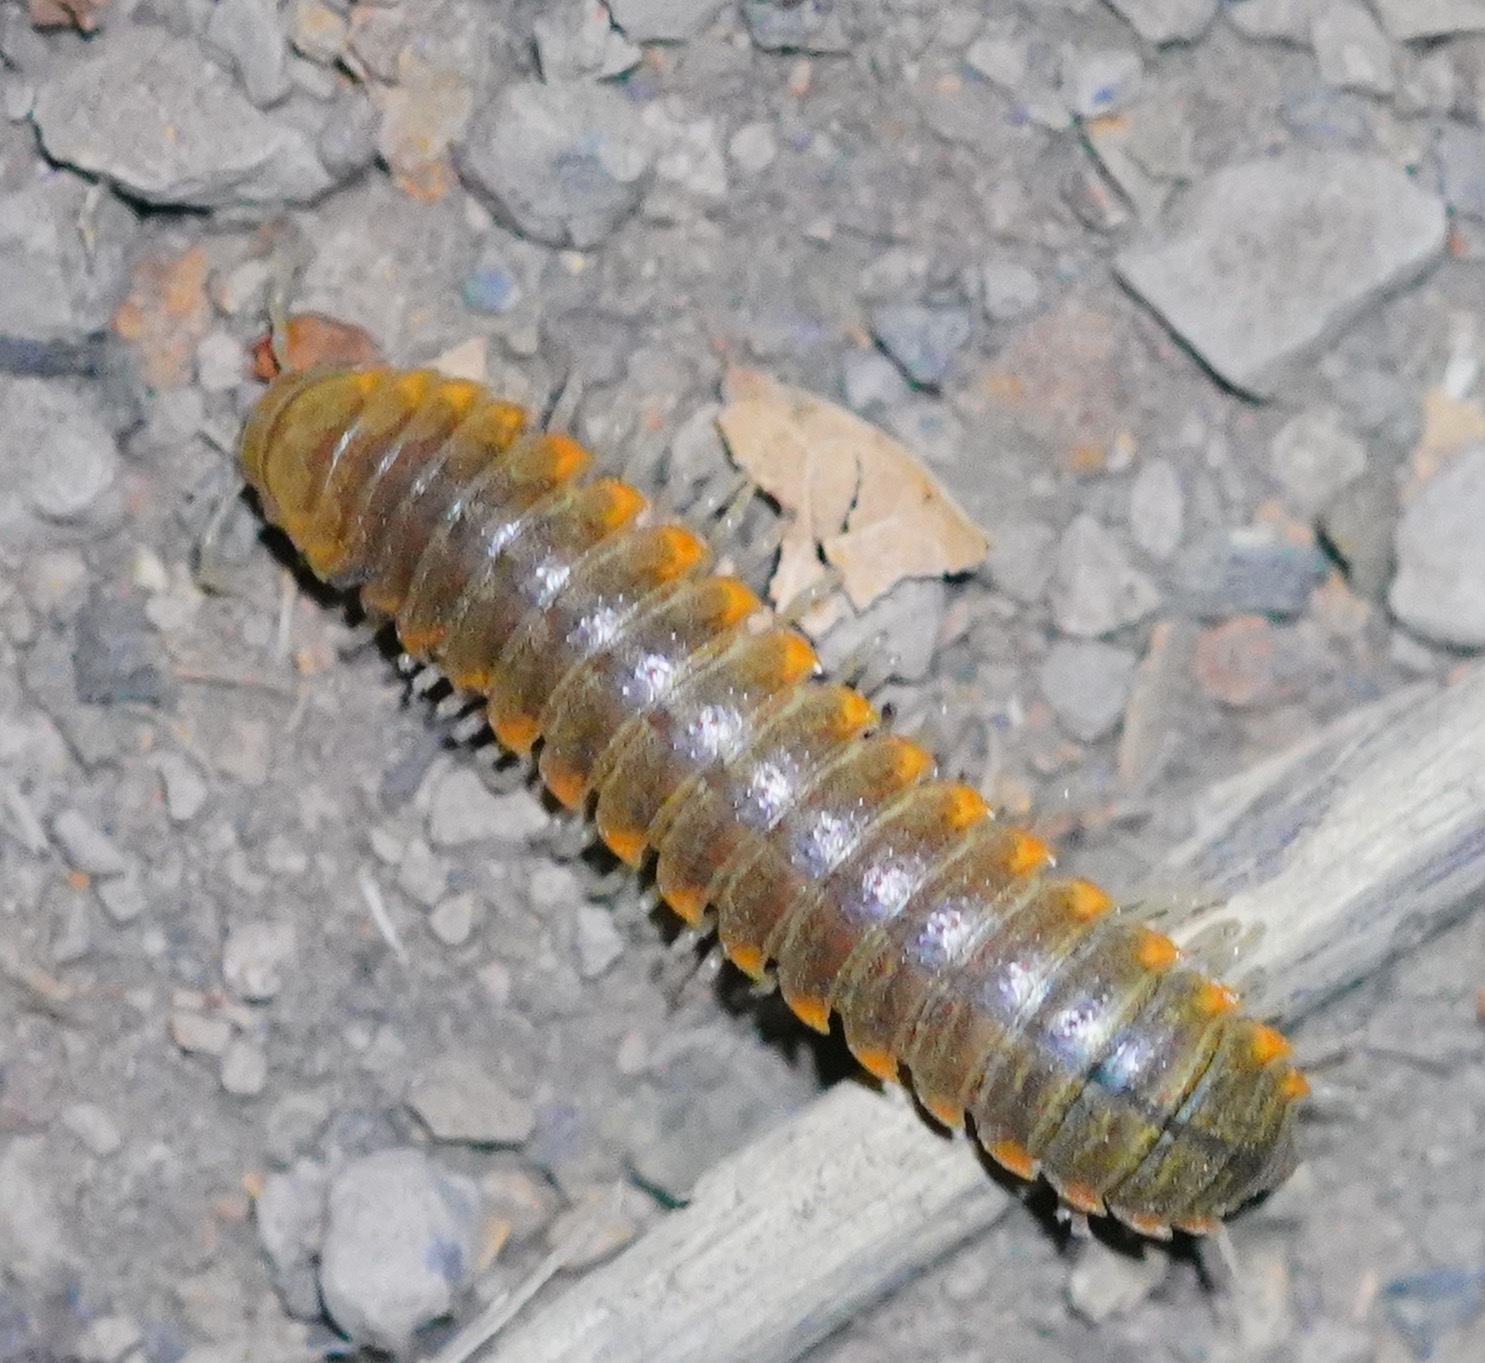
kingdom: Animalia
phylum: Arthropoda
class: Diplopoda
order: Polydesmida
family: Xystodesmidae
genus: Xystocheir
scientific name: Xystocheir dissecta
